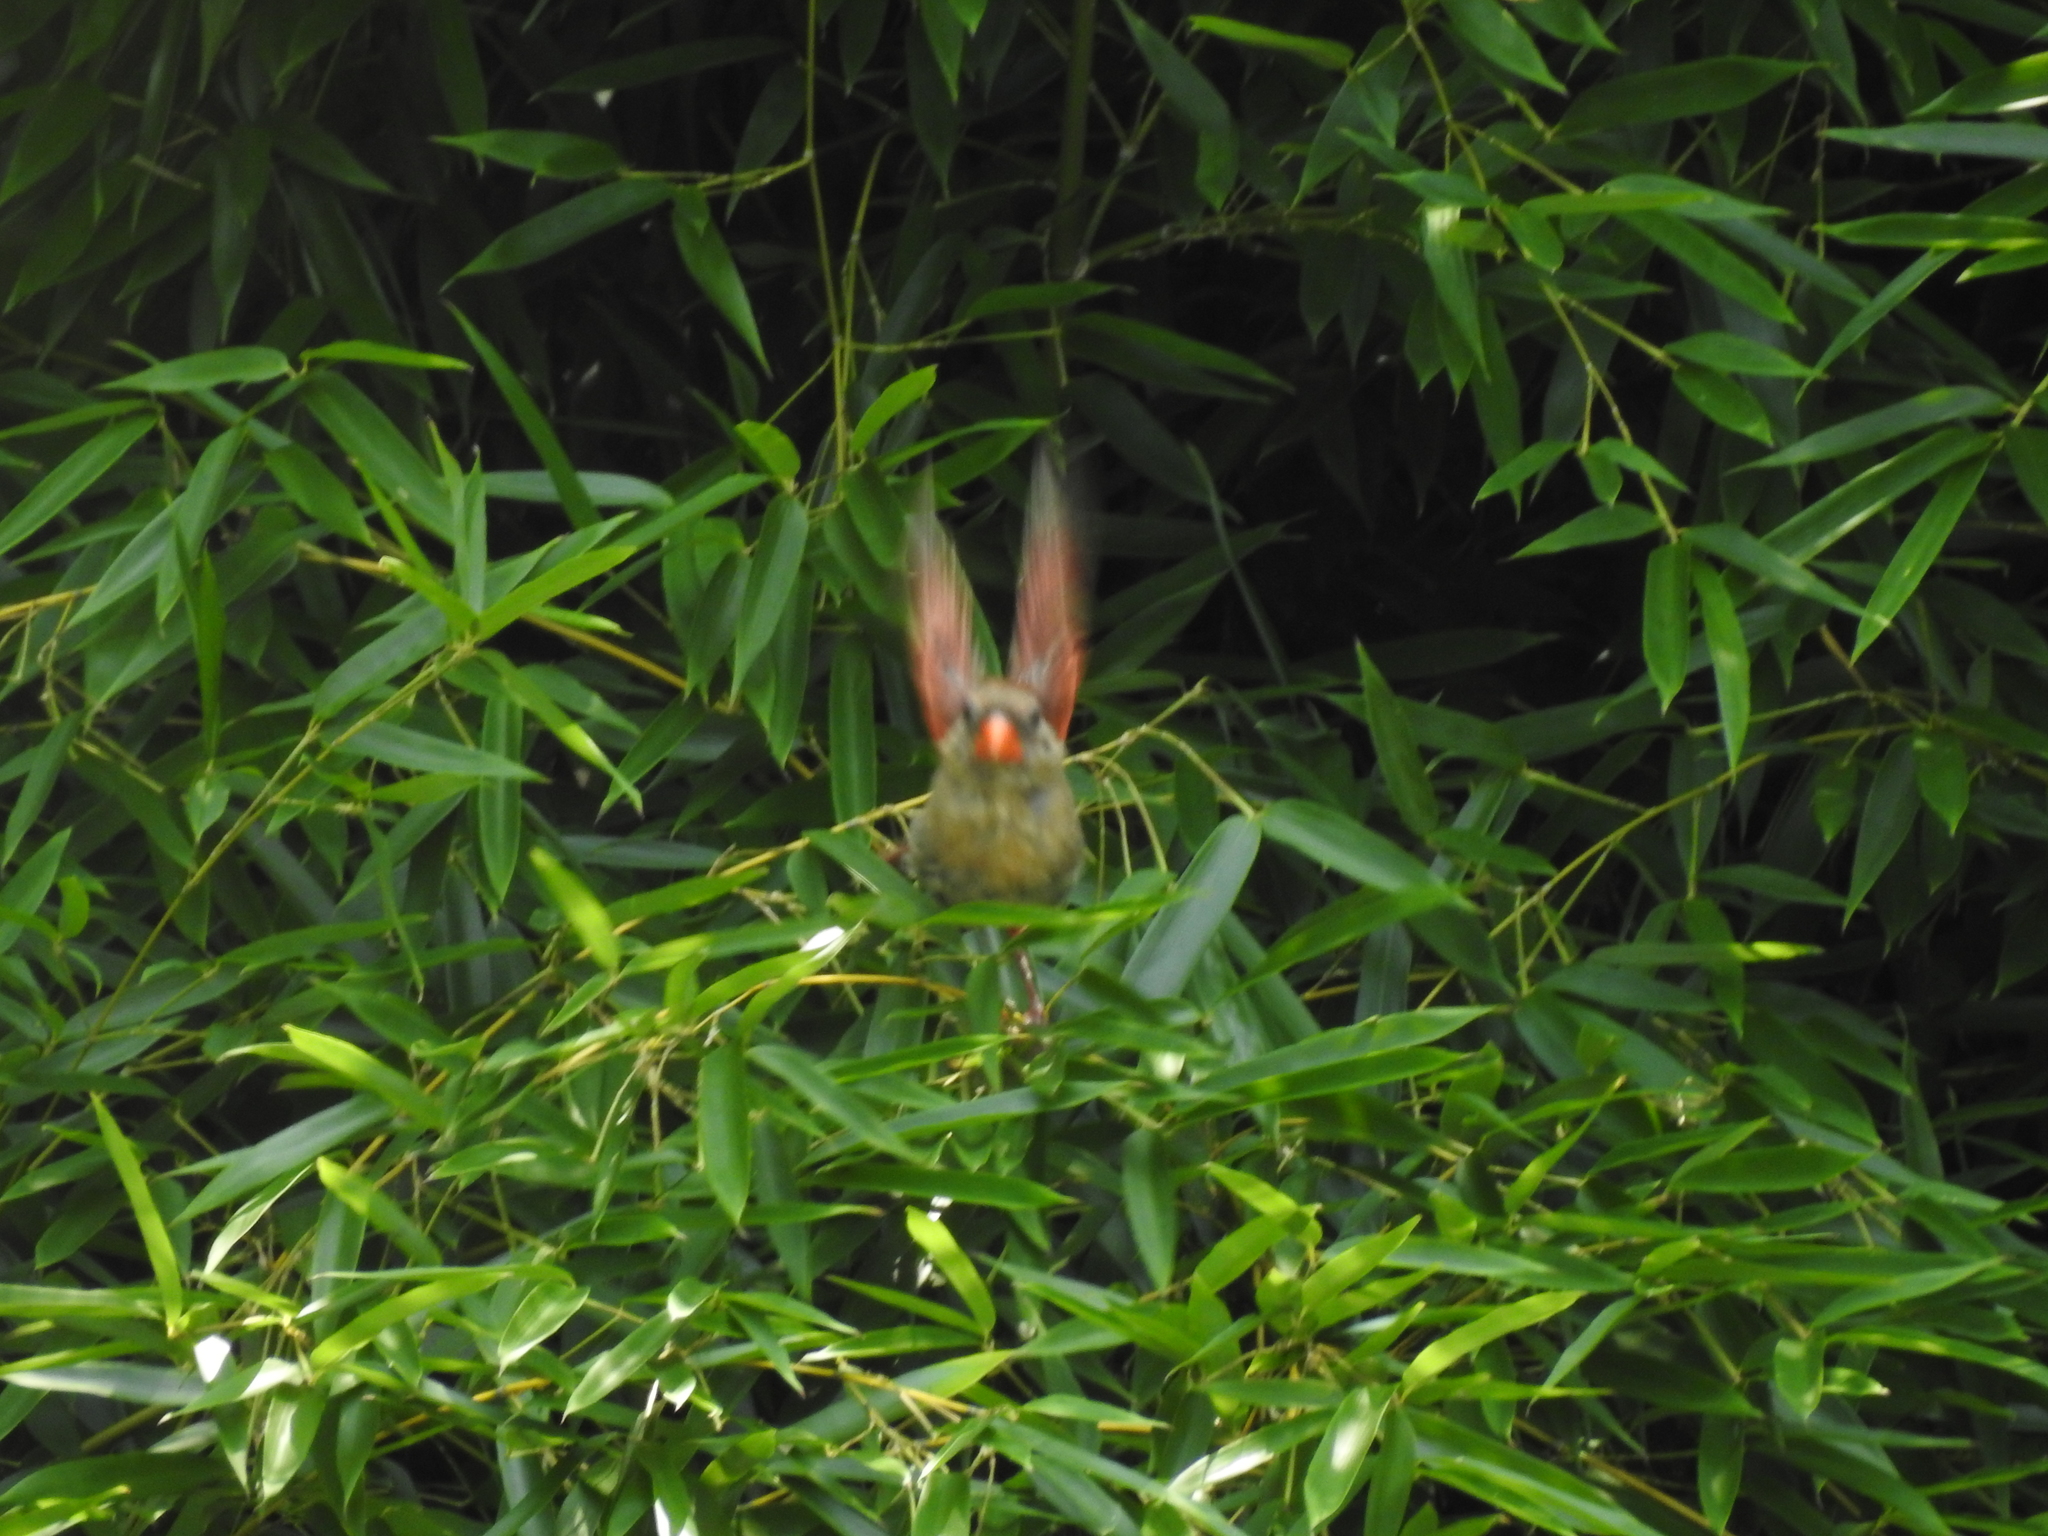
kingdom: Animalia
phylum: Chordata
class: Aves
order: Passeriformes
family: Cardinalidae
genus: Cardinalis
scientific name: Cardinalis cardinalis
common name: Northern cardinal
